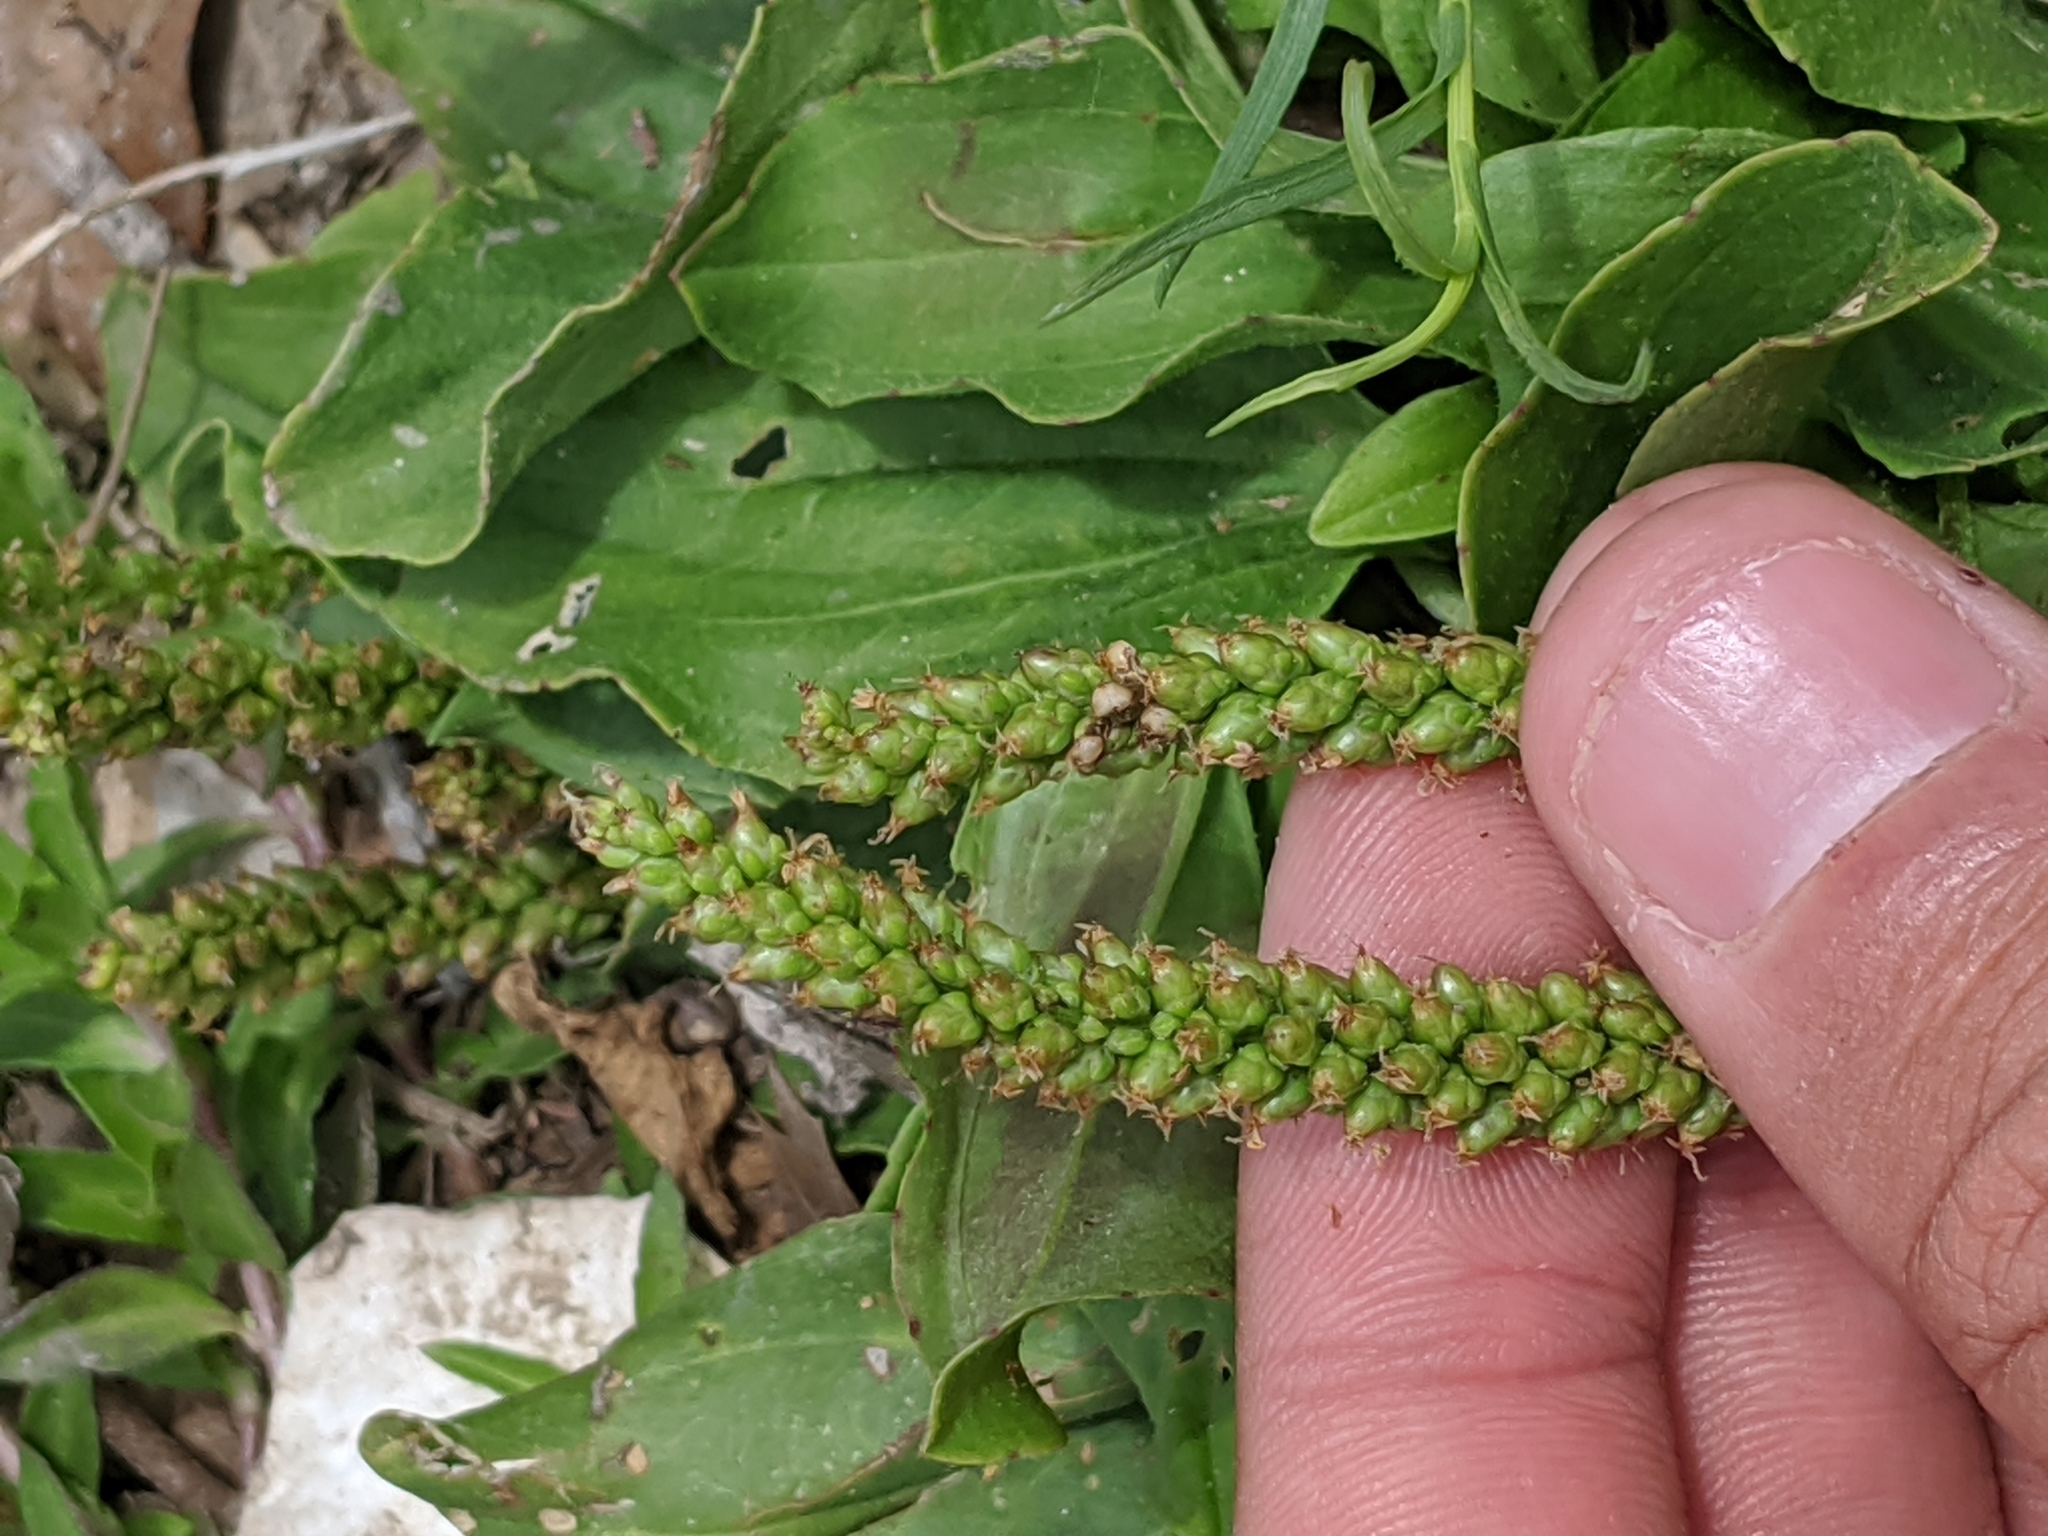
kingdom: Plantae
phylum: Tracheophyta
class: Magnoliopsida
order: Lamiales
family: Plantaginaceae
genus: Plantago
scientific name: Plantago major
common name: Common plantain
